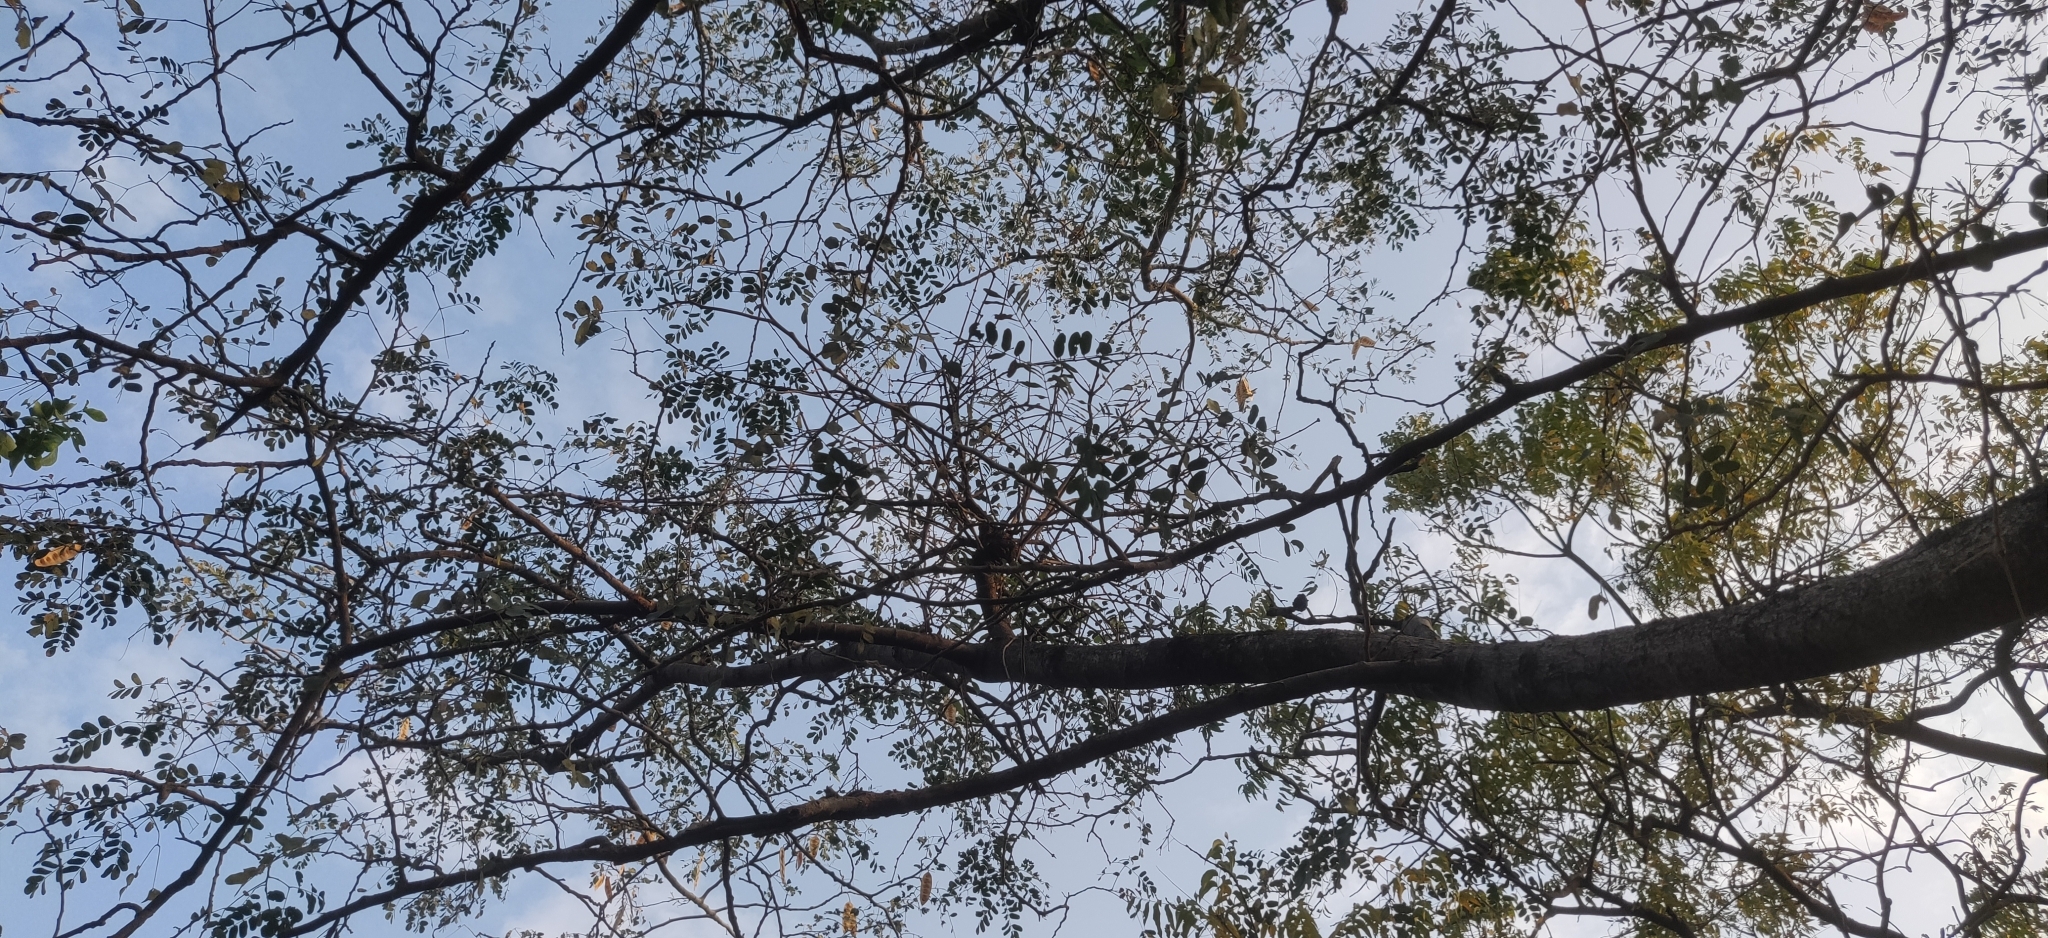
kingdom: Plantae
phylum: Tracheophyta
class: Magnoliopsida
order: Fabales
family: Fabaceae
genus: Albizia
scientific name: Albizia lebbeck
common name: Woman's tongue
